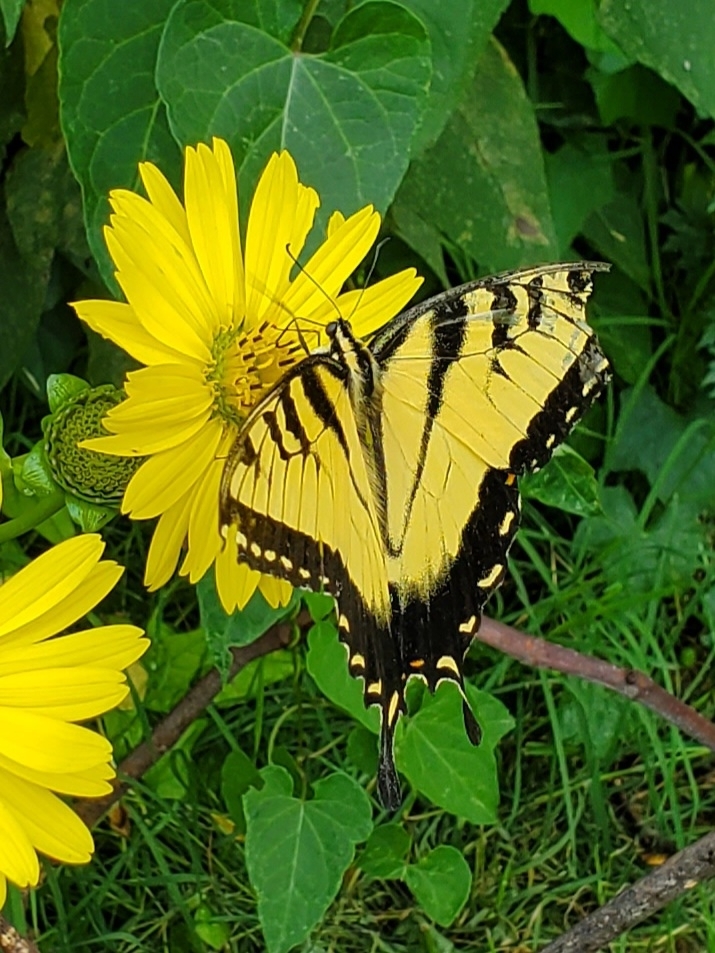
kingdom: Animalia
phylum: Arthropoda
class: Insecta
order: Lepidoptera
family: Papilionidae
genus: Papilio
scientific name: Papilio glaucus
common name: Tiger swallowtail
